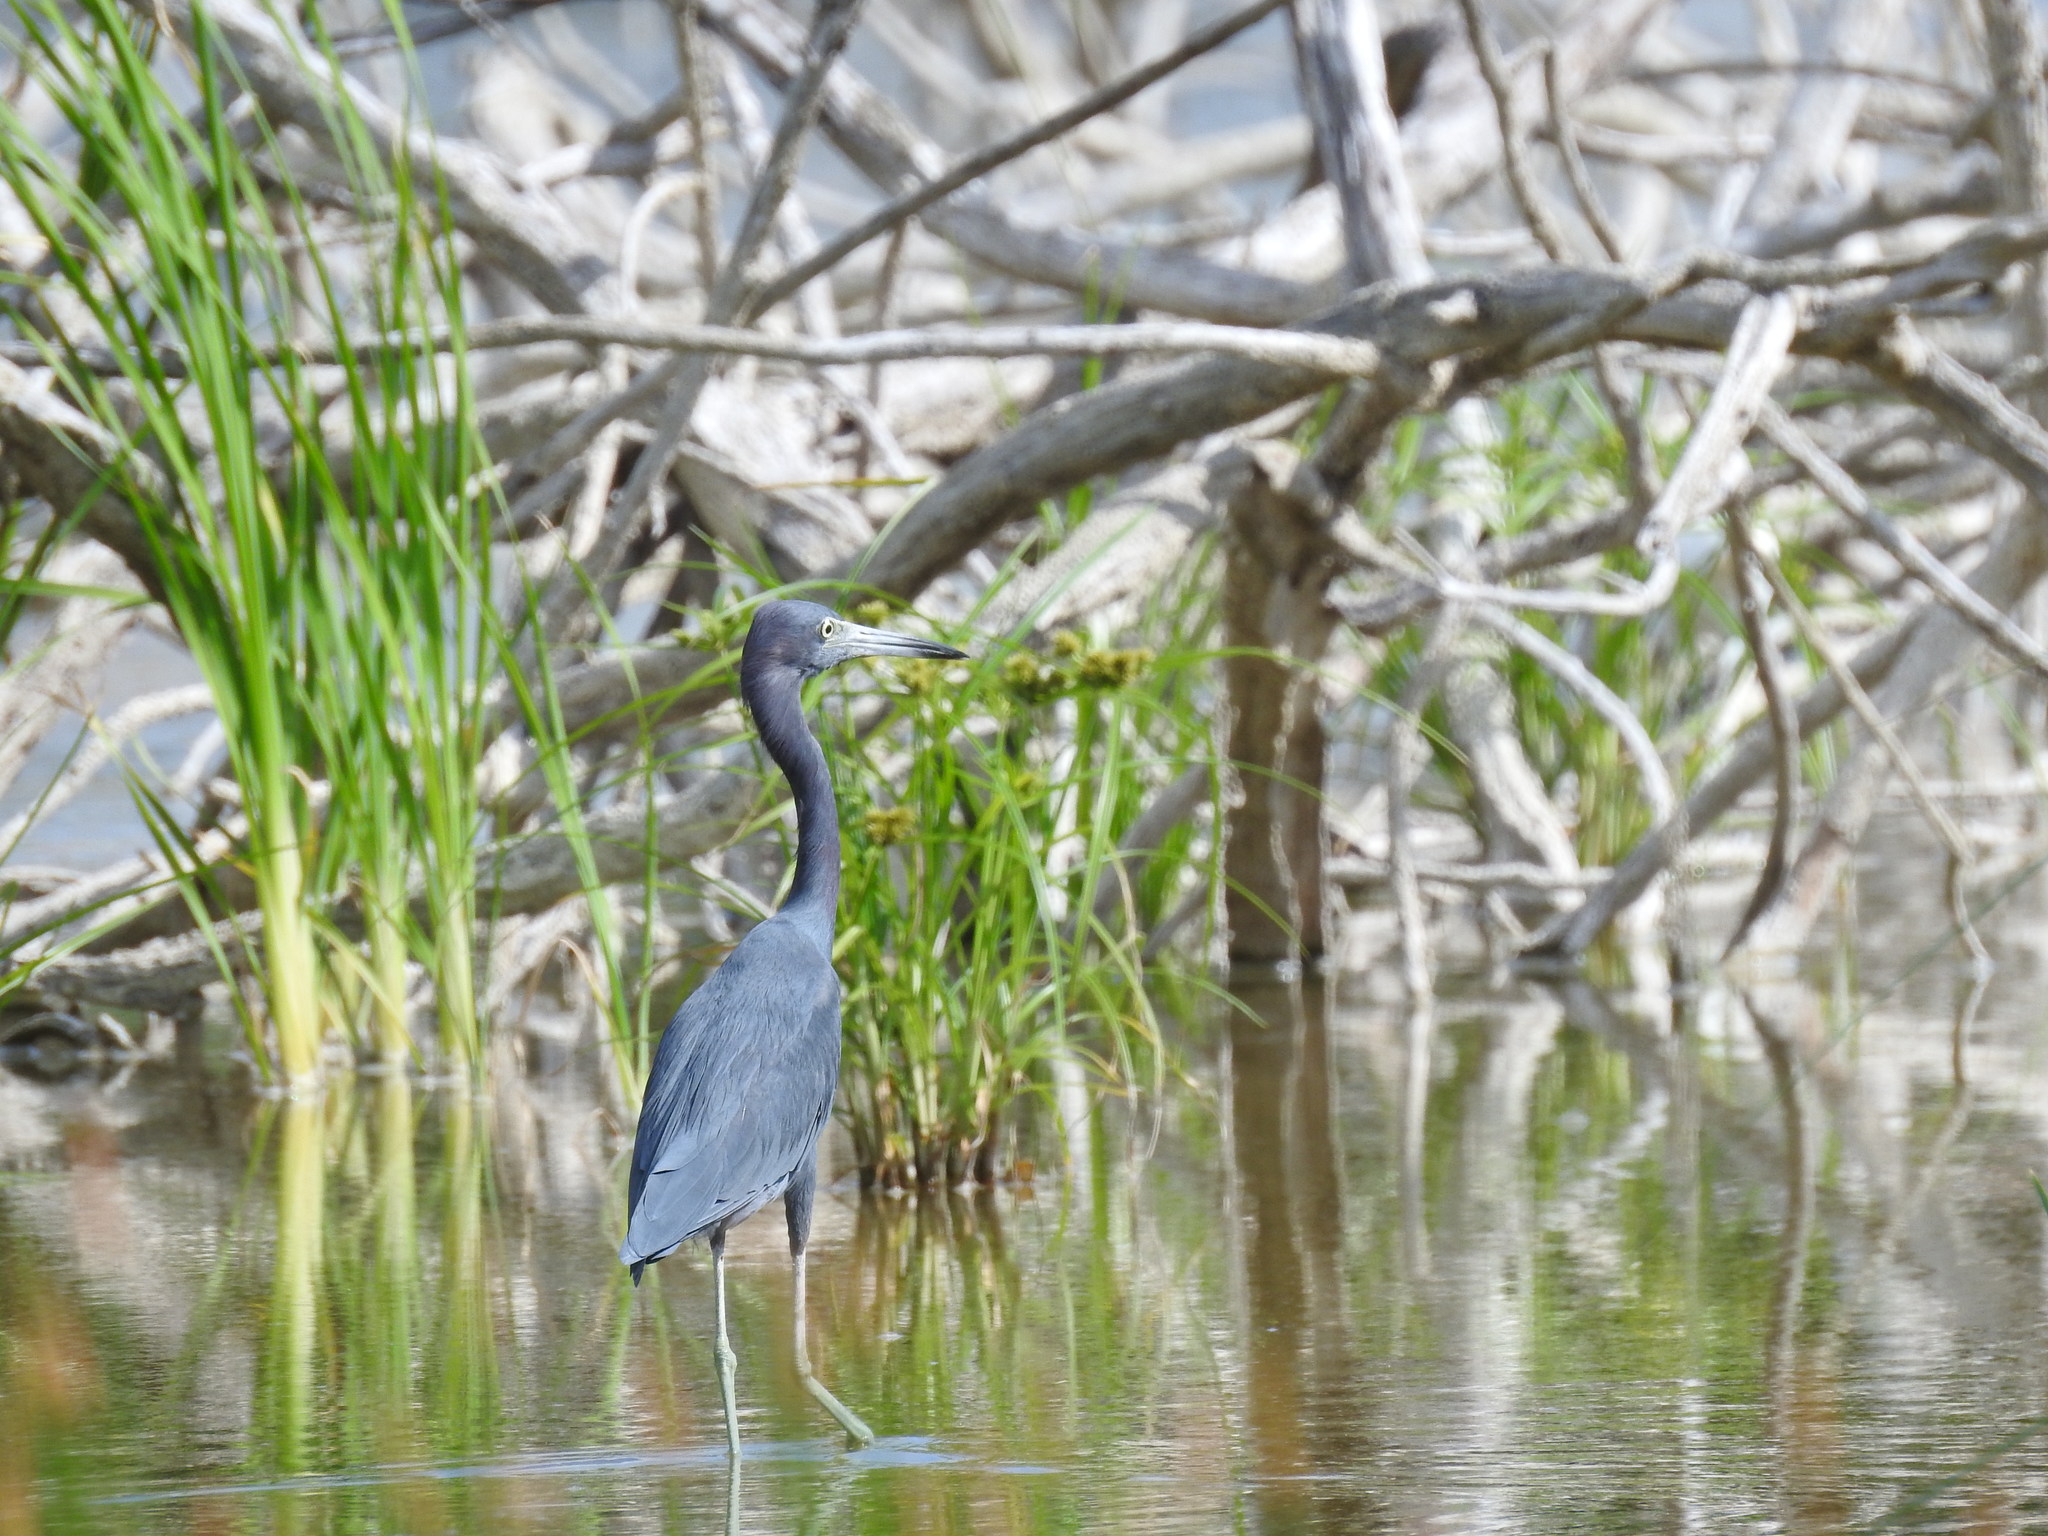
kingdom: Animalia
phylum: Chordata
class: Aves
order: Pelecaniformes
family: Ardeidae
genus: Egretta
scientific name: Egretta caerulea
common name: Little blue heron
